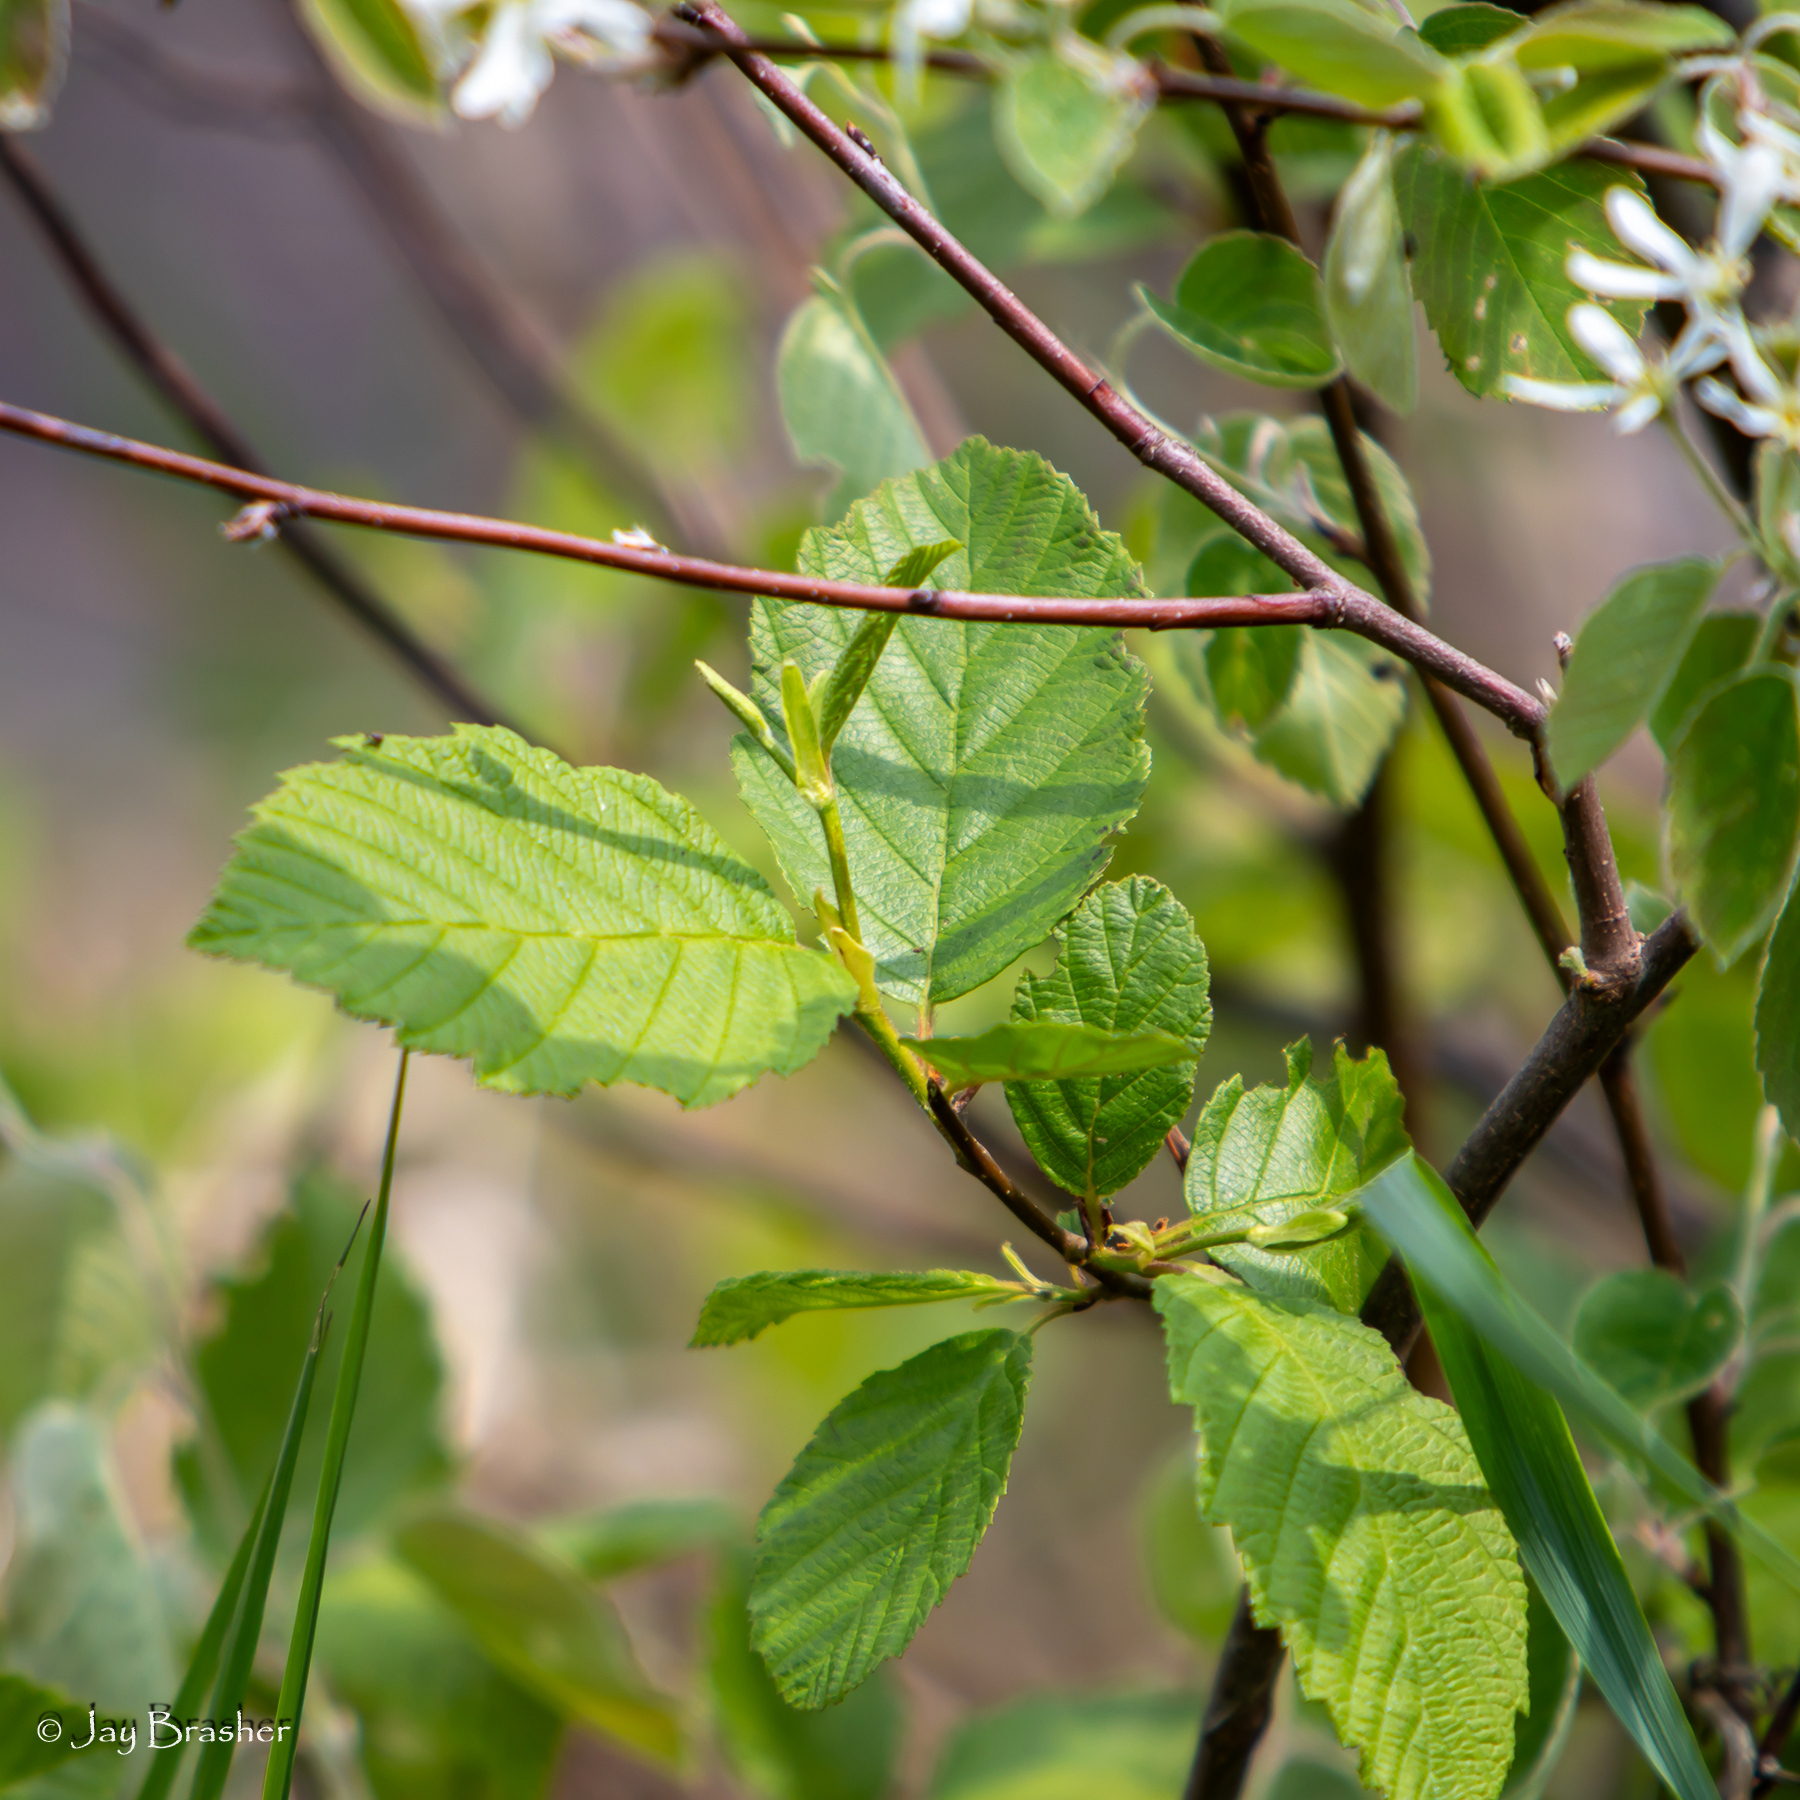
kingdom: Plantae
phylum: Tracheophyta
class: Magnoliopsida
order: Fagales
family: Betulaceae
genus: Alnus
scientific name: Alnus incana
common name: Grey alder
